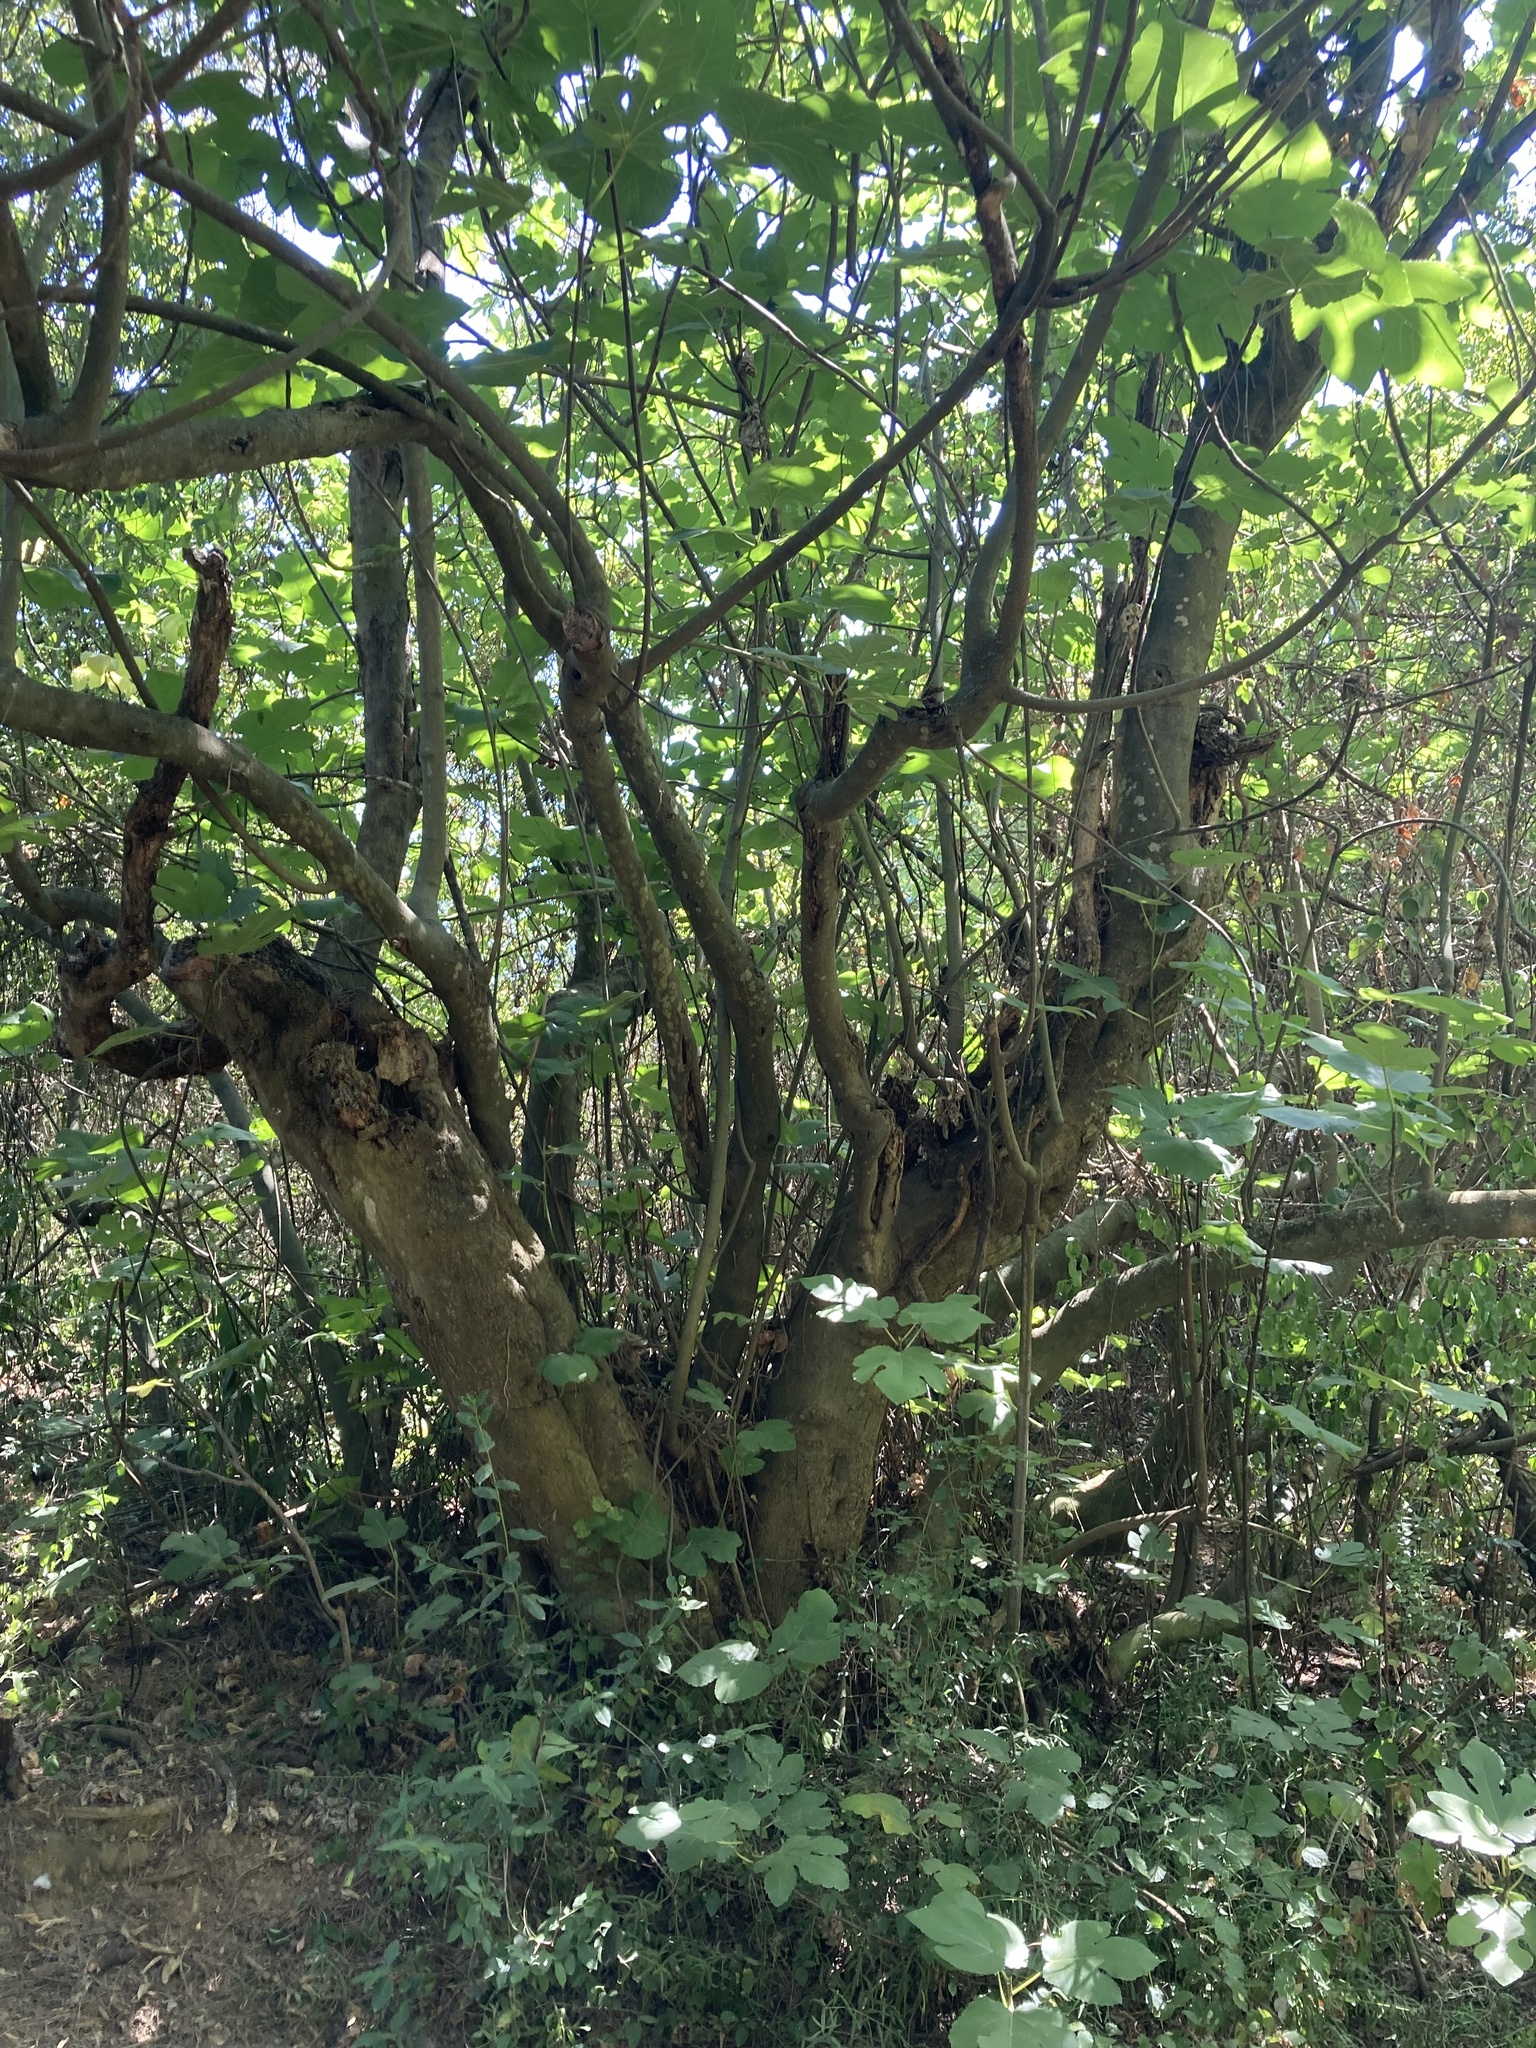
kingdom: Plantae
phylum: Tracheophyta
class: Magnoliopsida
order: Rosales
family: Moraceae
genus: Ficus
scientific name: Ficus carica
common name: Fig
